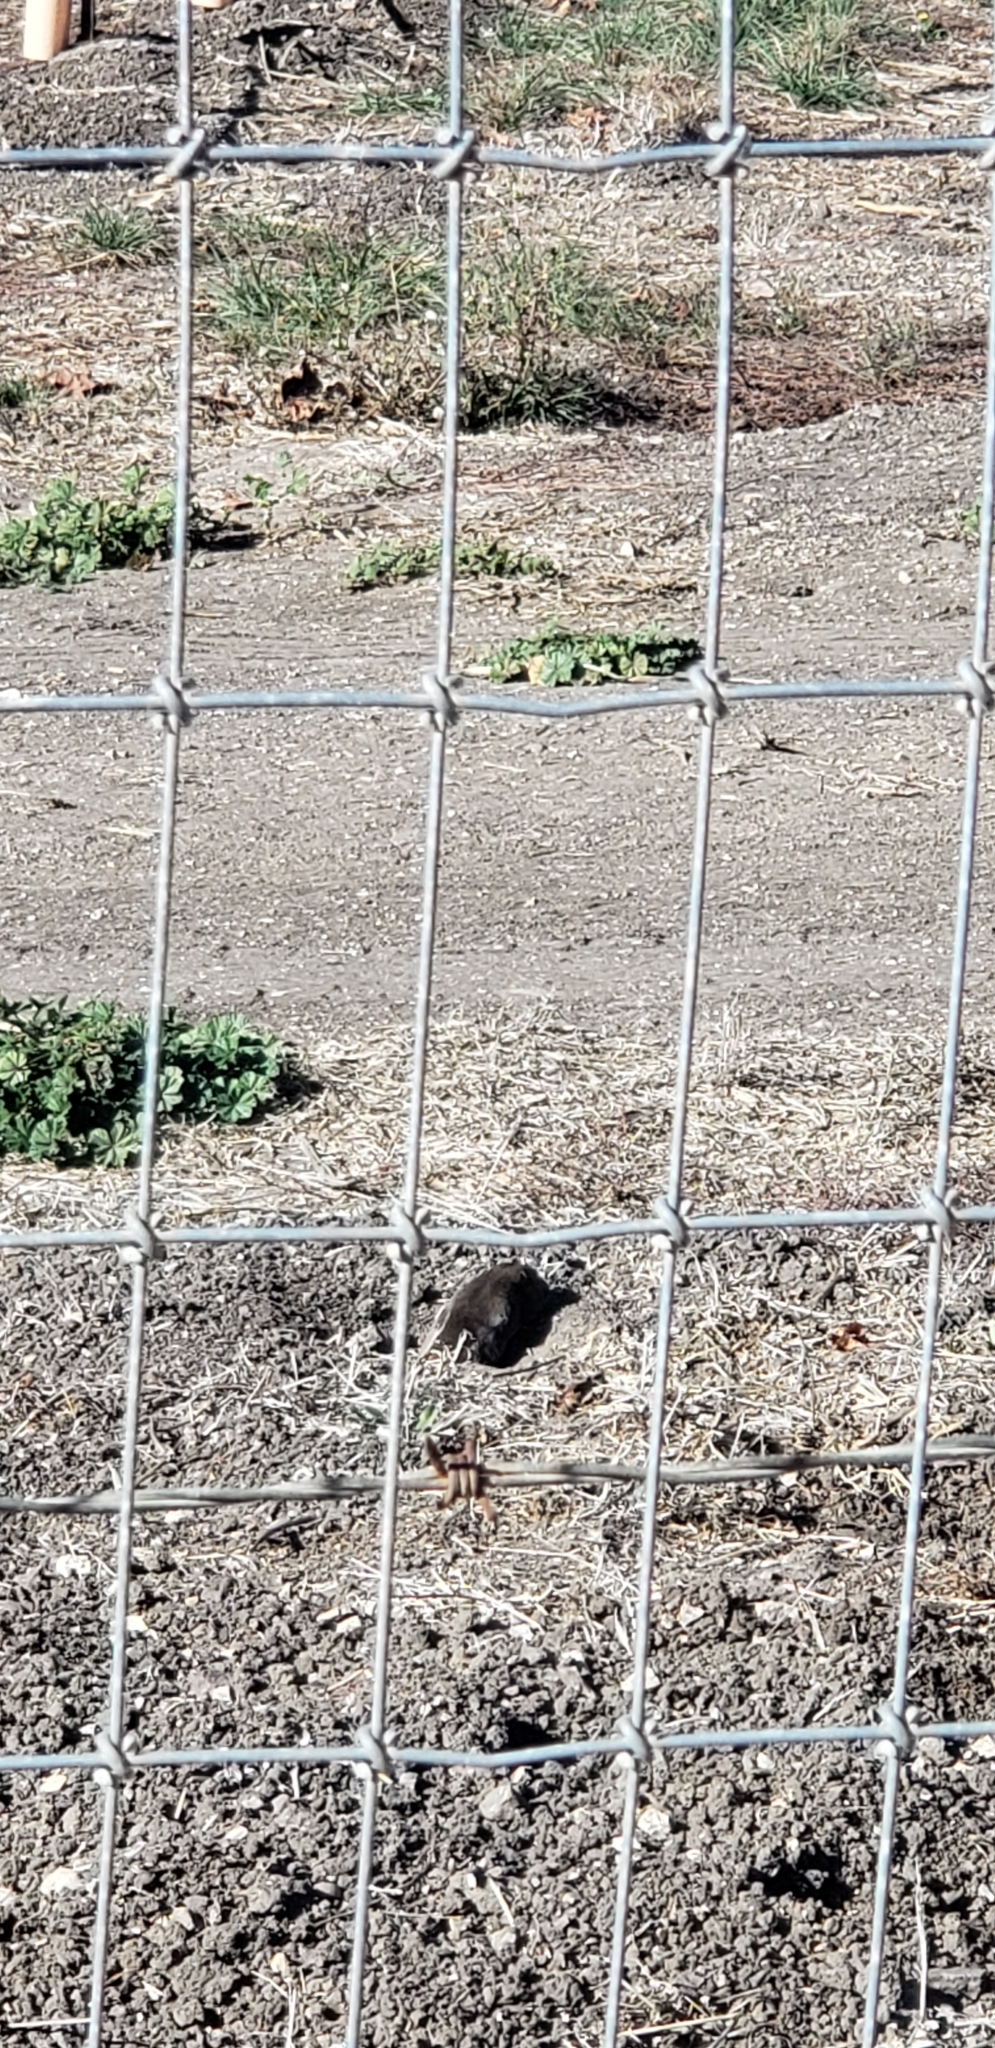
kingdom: Animalia
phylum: Chordata
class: Mammalia
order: Rodentia
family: Geomyidae
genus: Thomomys
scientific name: Thomomys bottae
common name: Botta's pocket gopher
